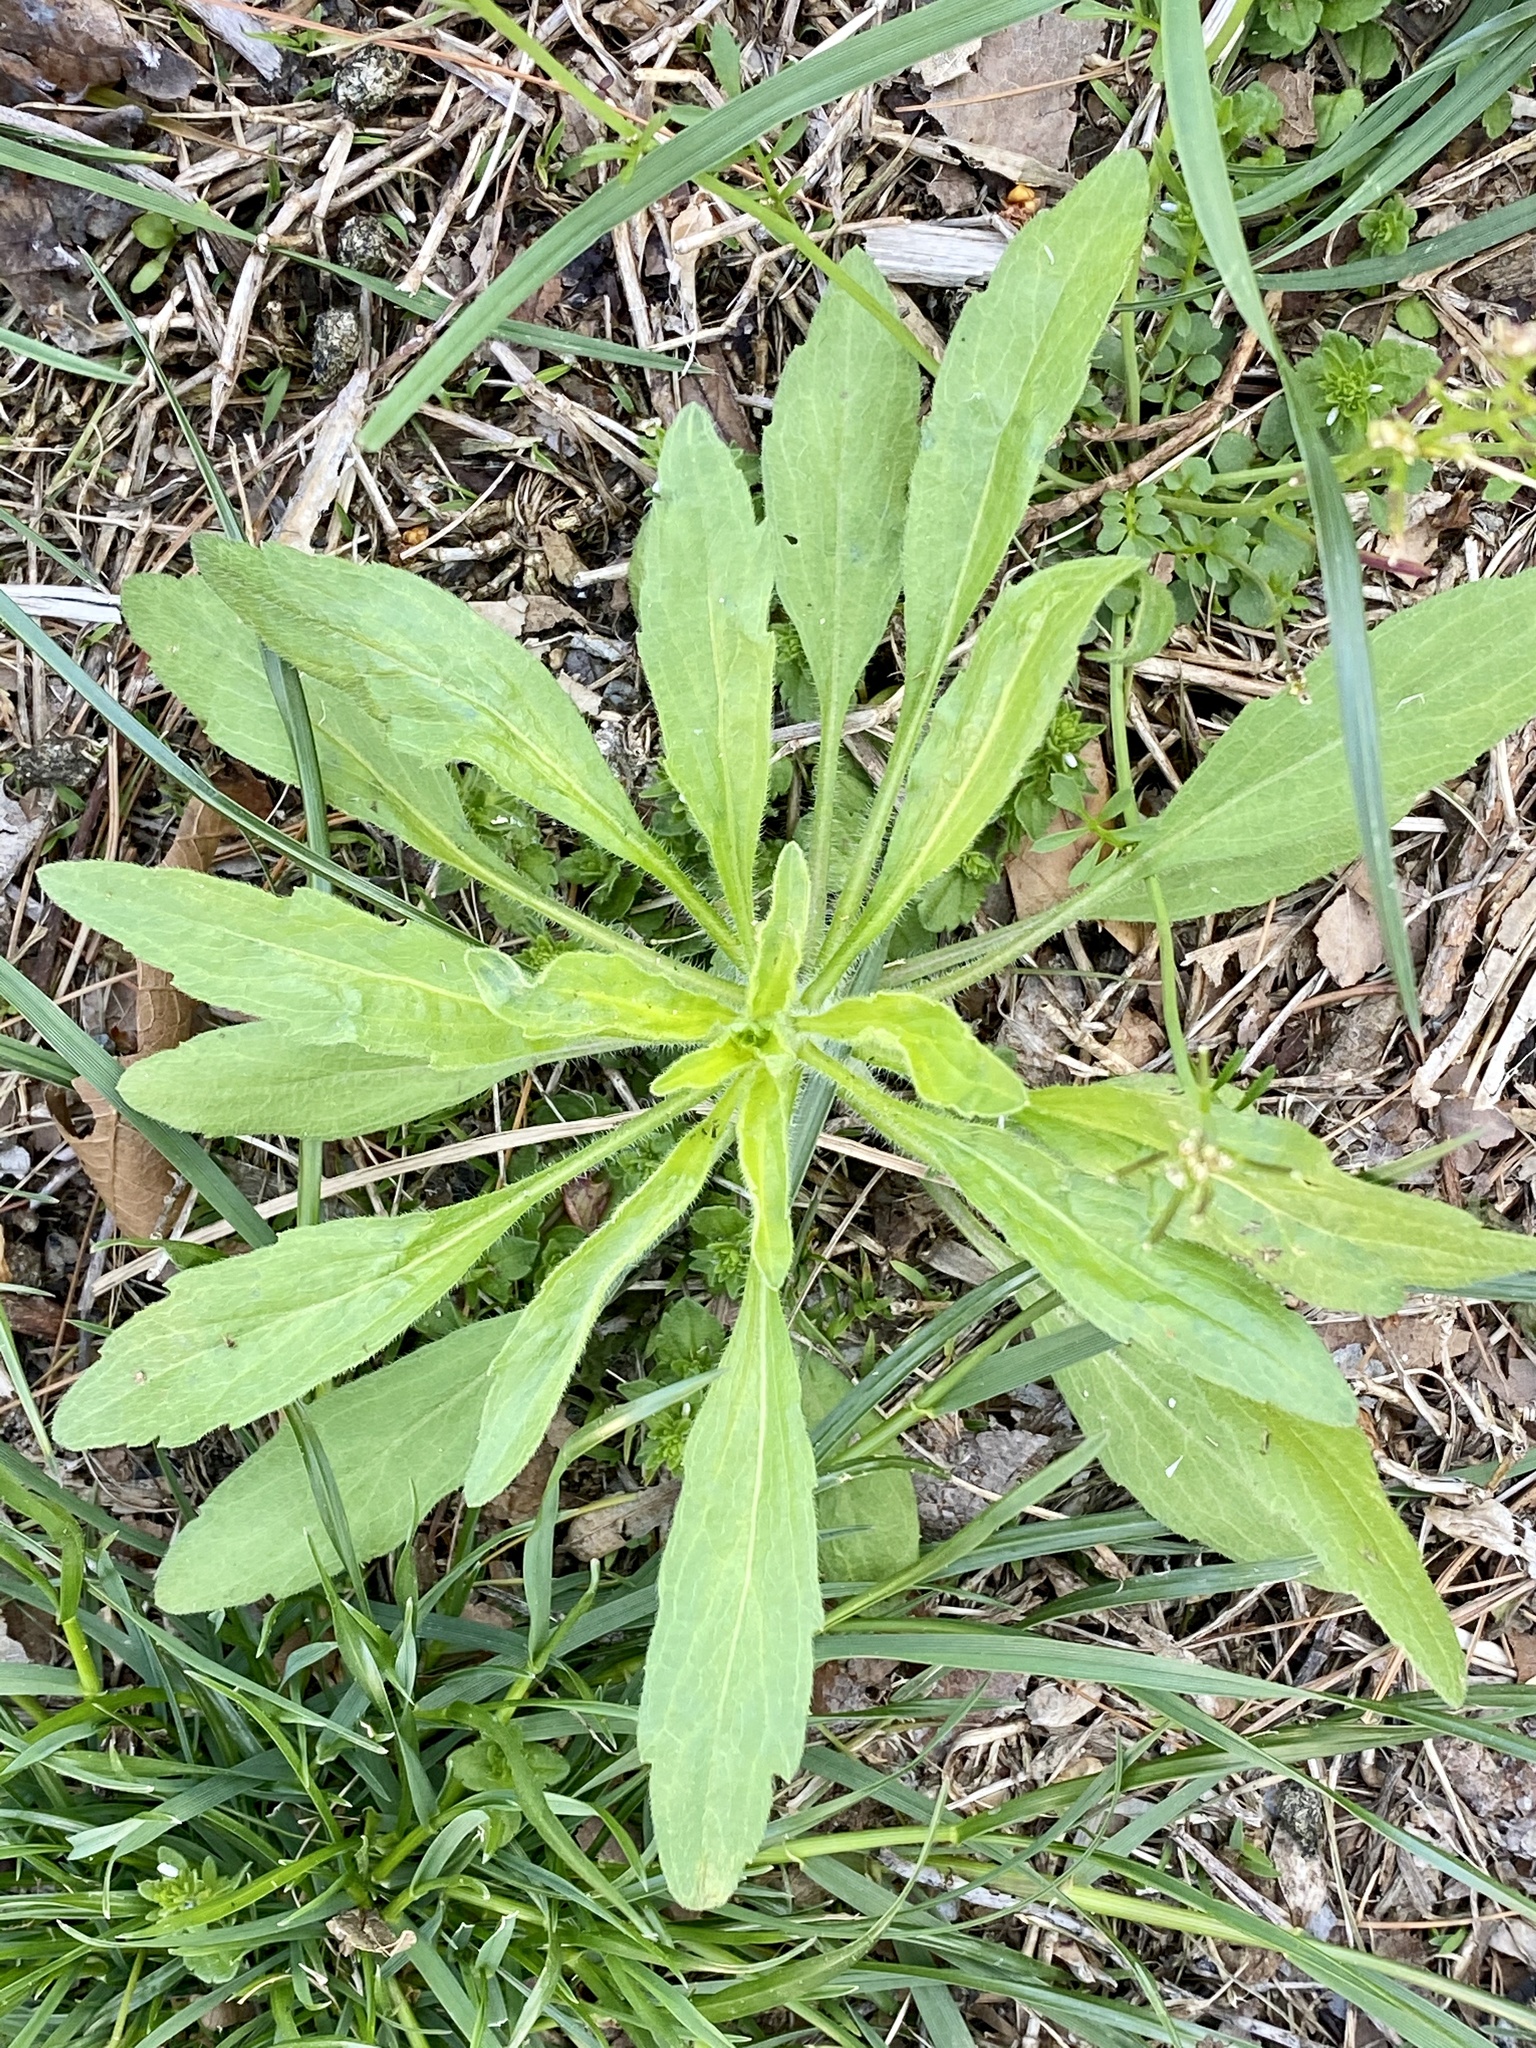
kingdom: Plantae
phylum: Tracheophyta
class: Magnoliopsida
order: Asterales
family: Asteraceae
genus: Erigeron
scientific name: Erigeron canadensis
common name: Canadian fleabane
